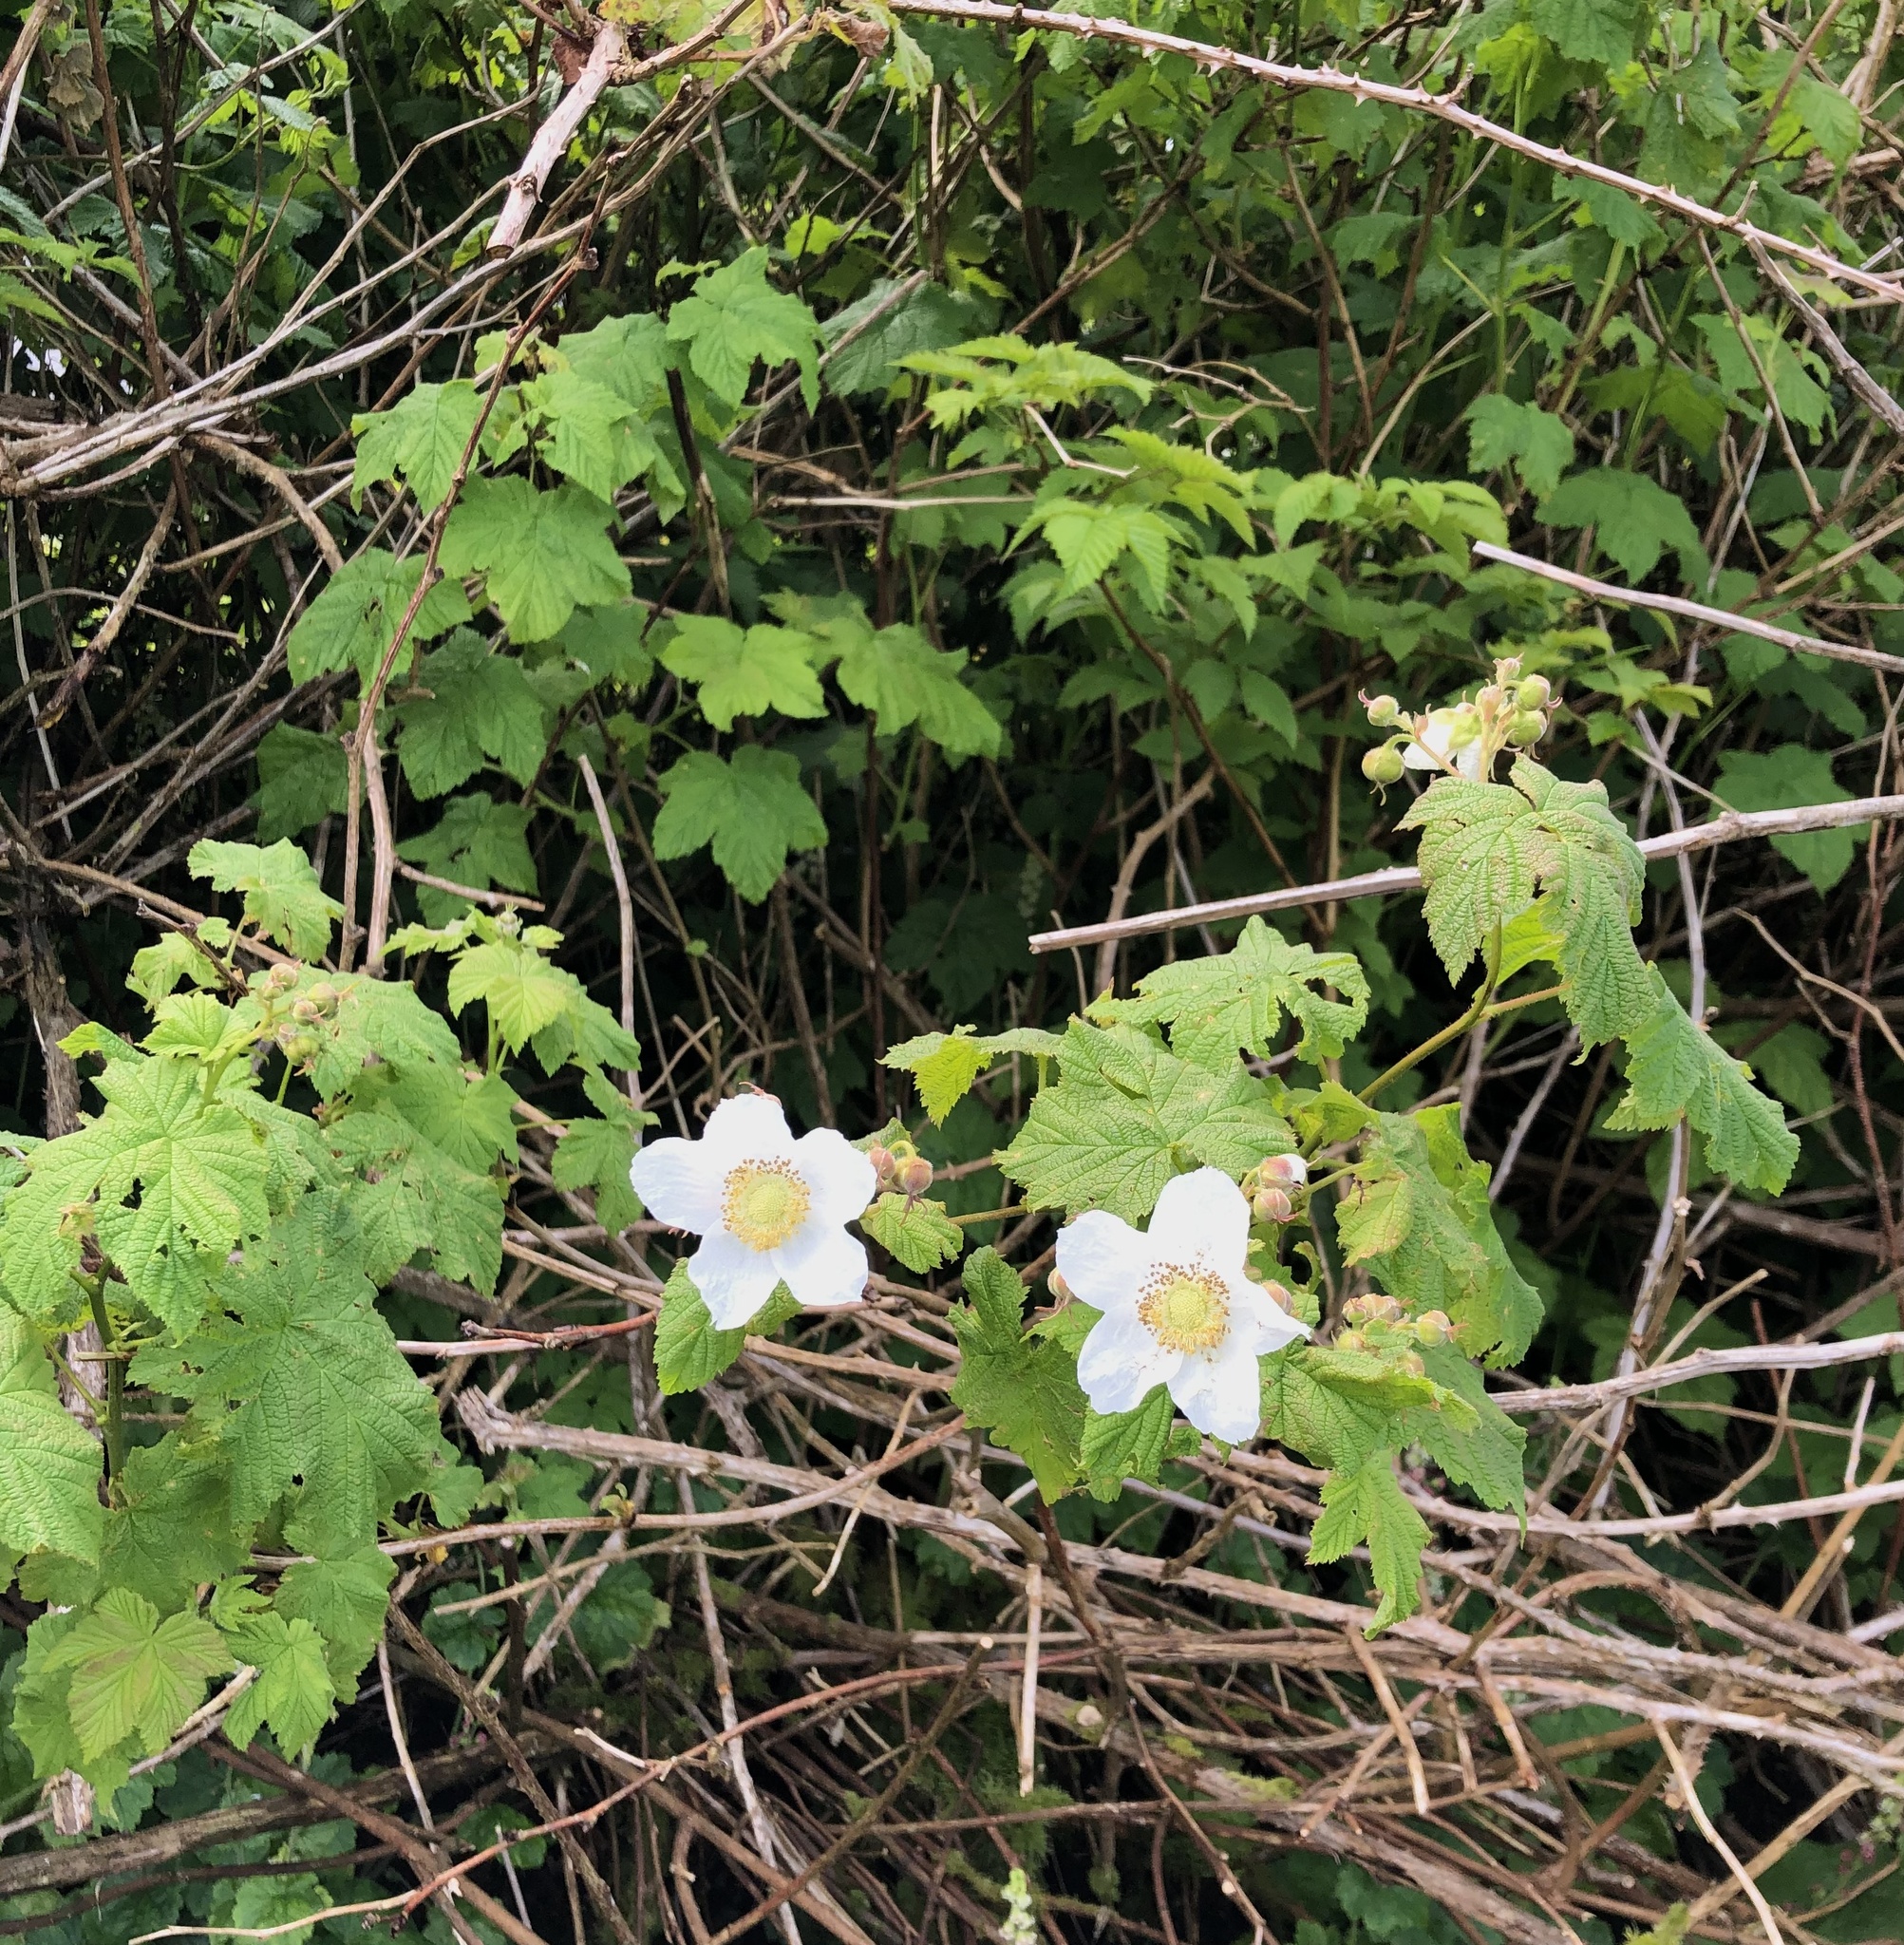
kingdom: Plantae
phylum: Tracheophyta
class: Magnoliopsida
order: Rosales
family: Rosaceae
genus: Rubus
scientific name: Rubus parviflorus
